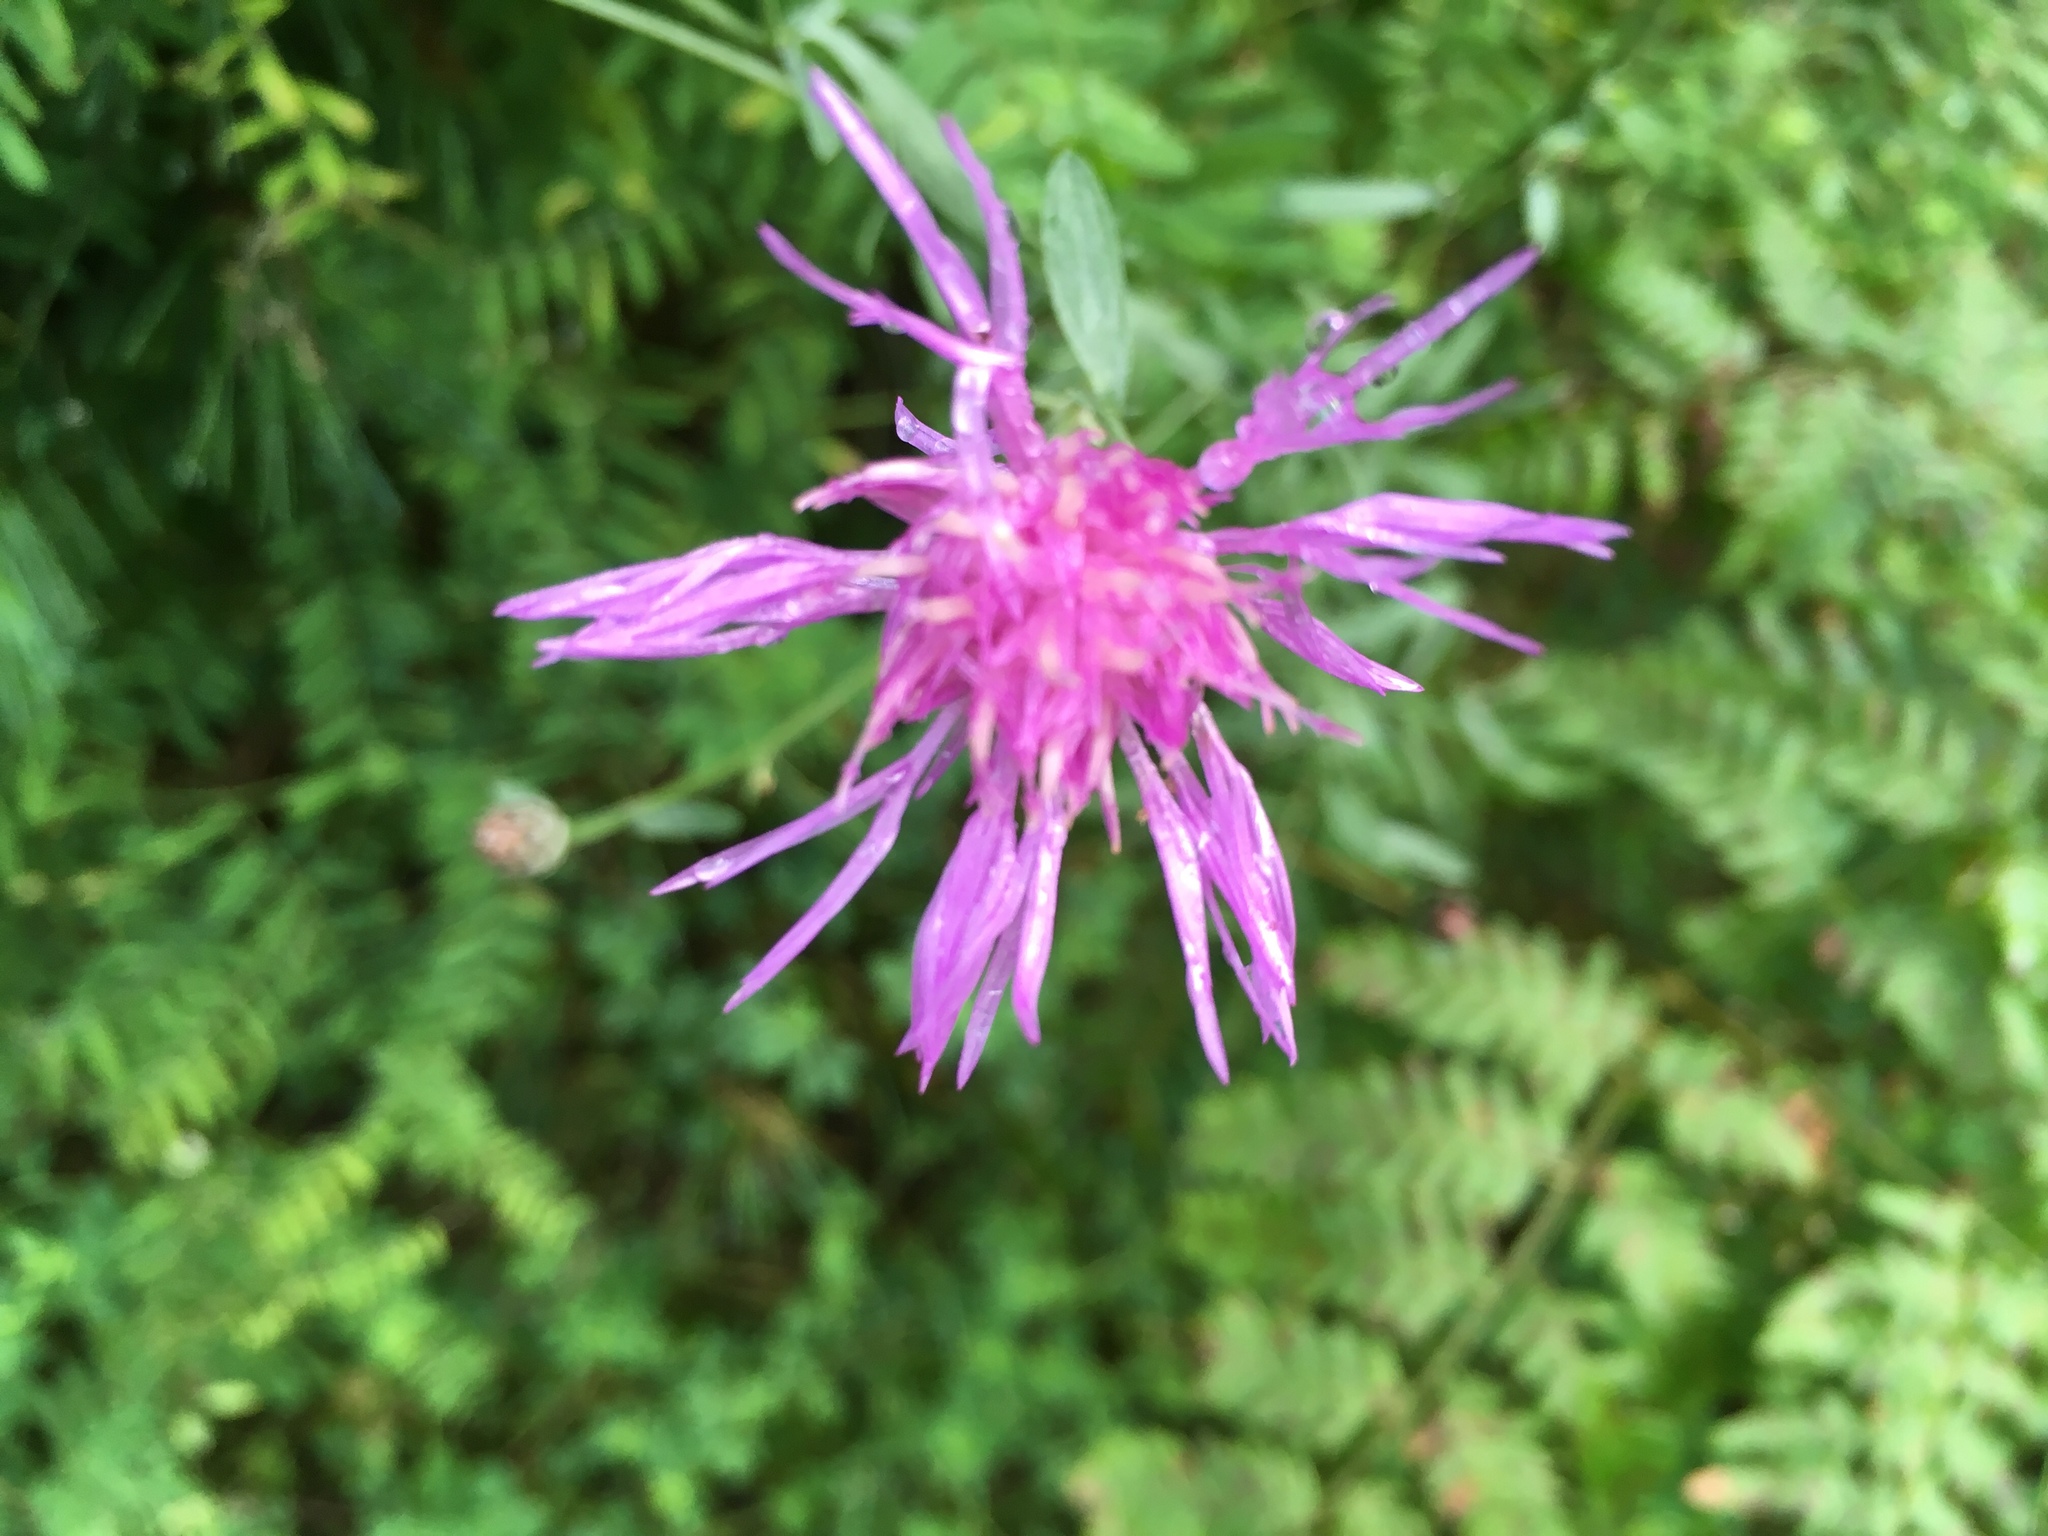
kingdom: Plantae
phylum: Tracheophyta
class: Magnoliopsida
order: Asterales
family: Asteraceae
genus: Centaurea
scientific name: Centaurea stoebe
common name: Spotted knapweed
